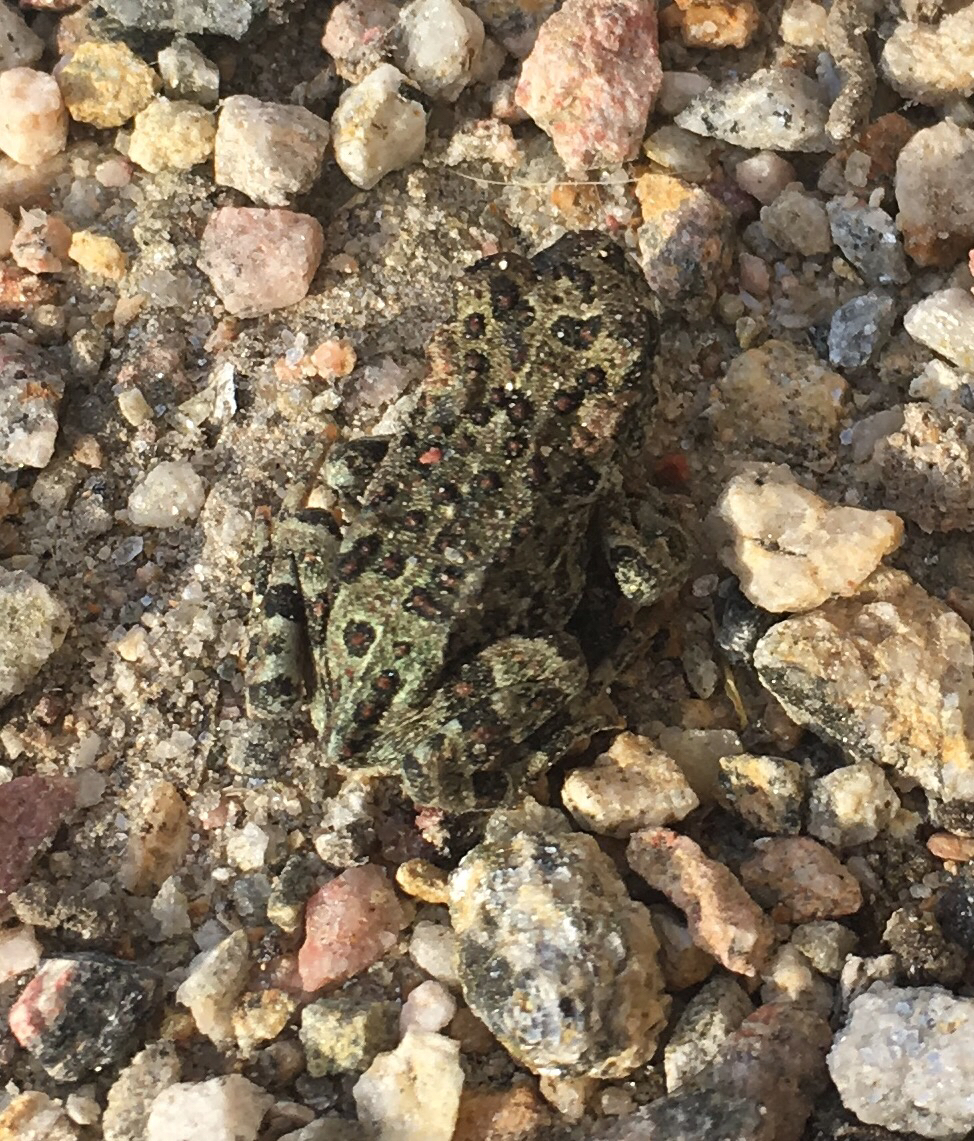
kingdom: Animalia
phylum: Chordata
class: Amphibia
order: Anura
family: Bufonidae
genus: Anaxyrus
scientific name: Anaxyrus boreas
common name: Western toad
